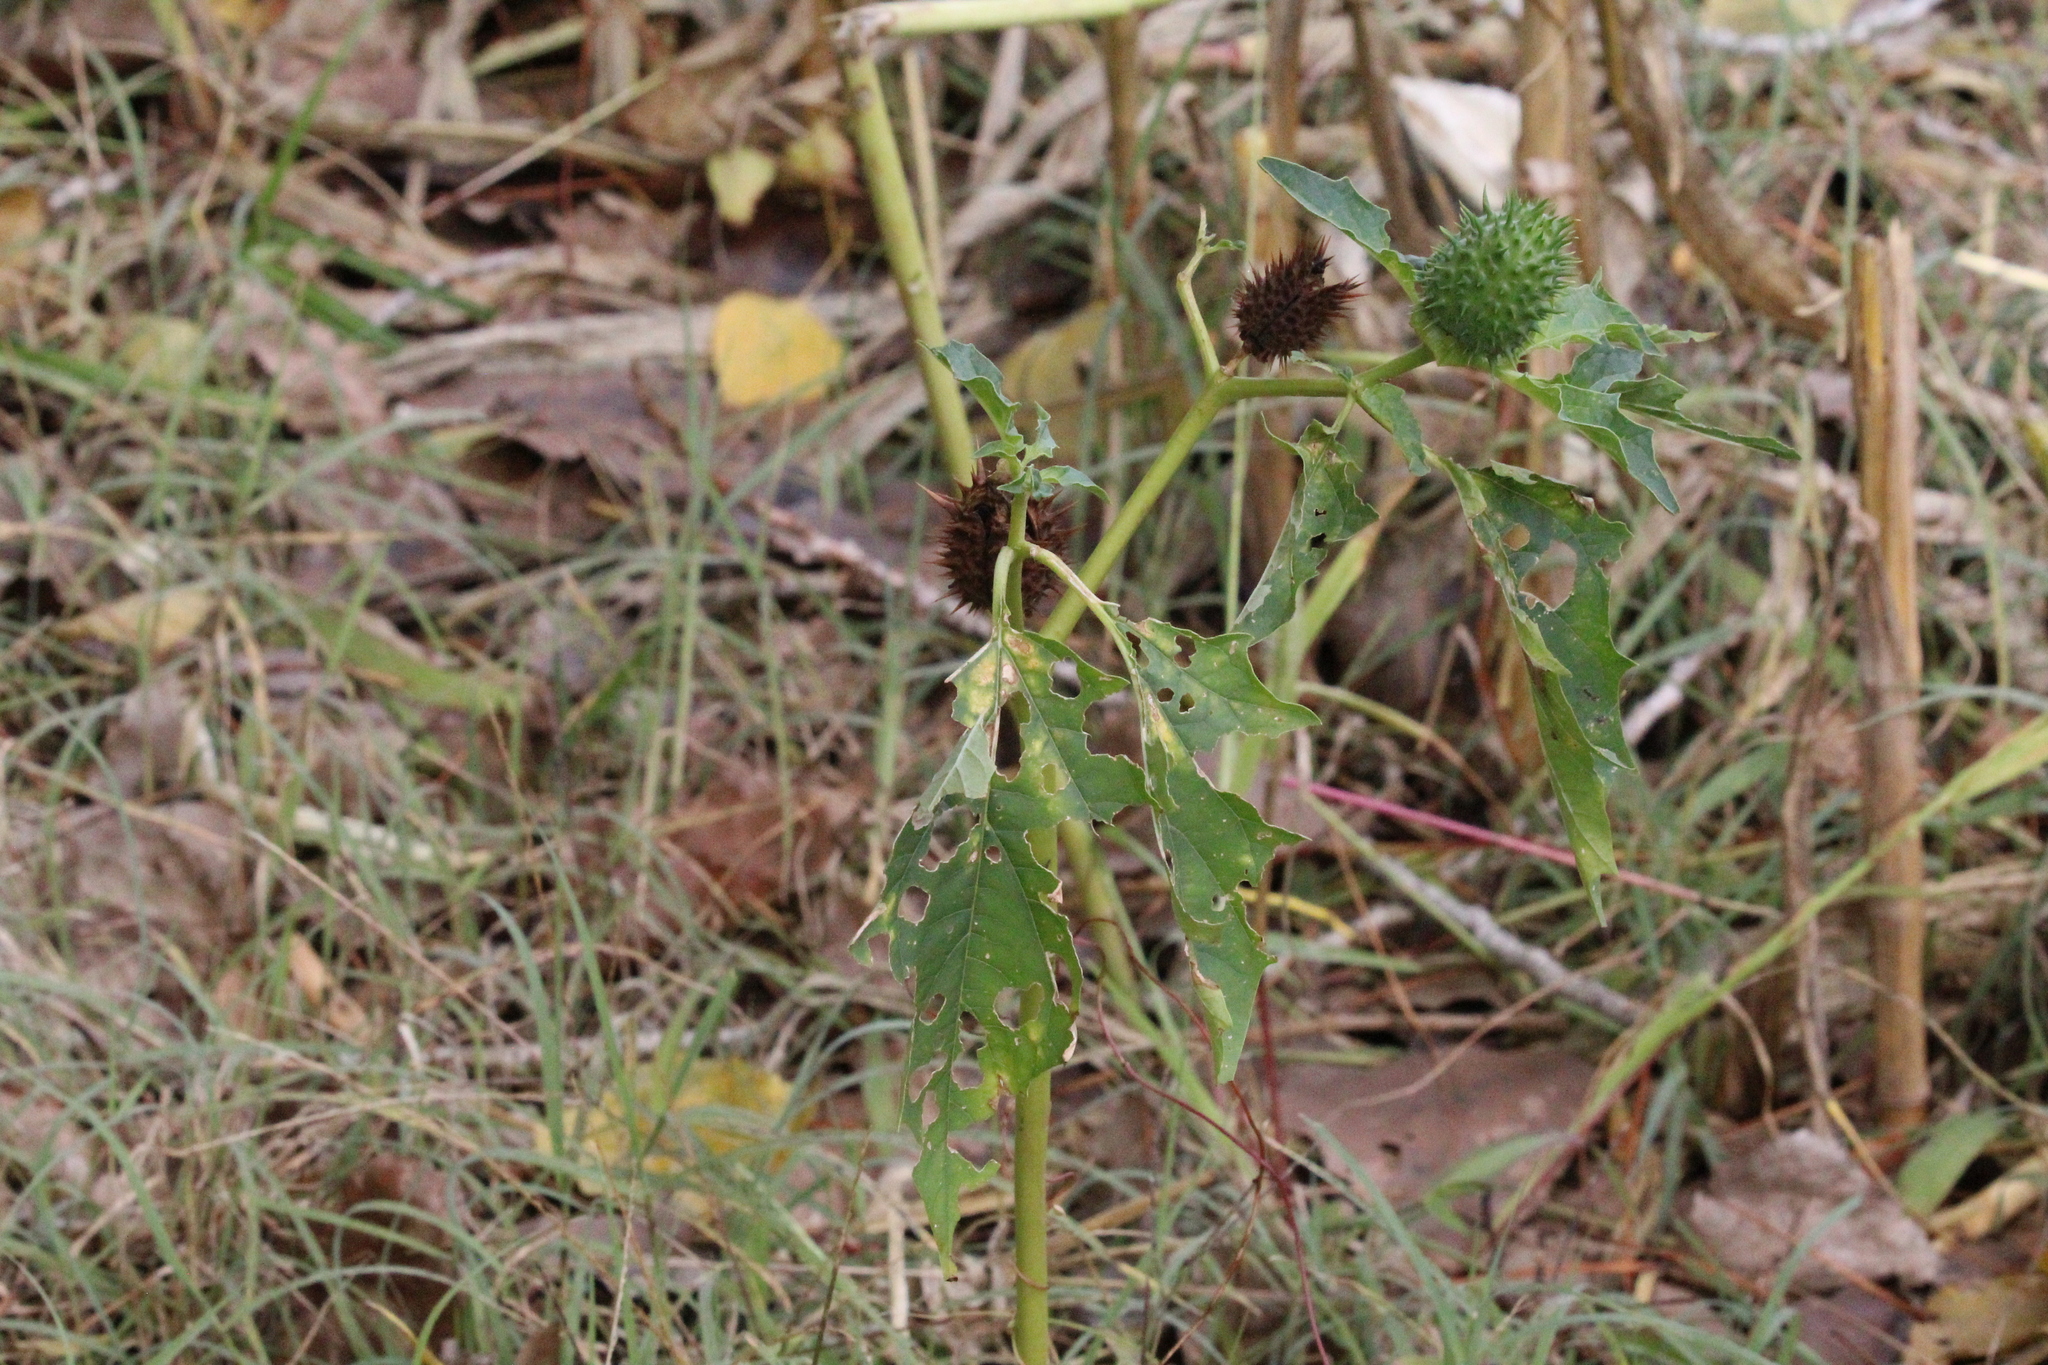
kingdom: Plantae
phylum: Tracheophyta
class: Magnoliopsida
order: Solanales
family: Solanaceae
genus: Datura
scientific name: Datura stramonium
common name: Thorn-apple
